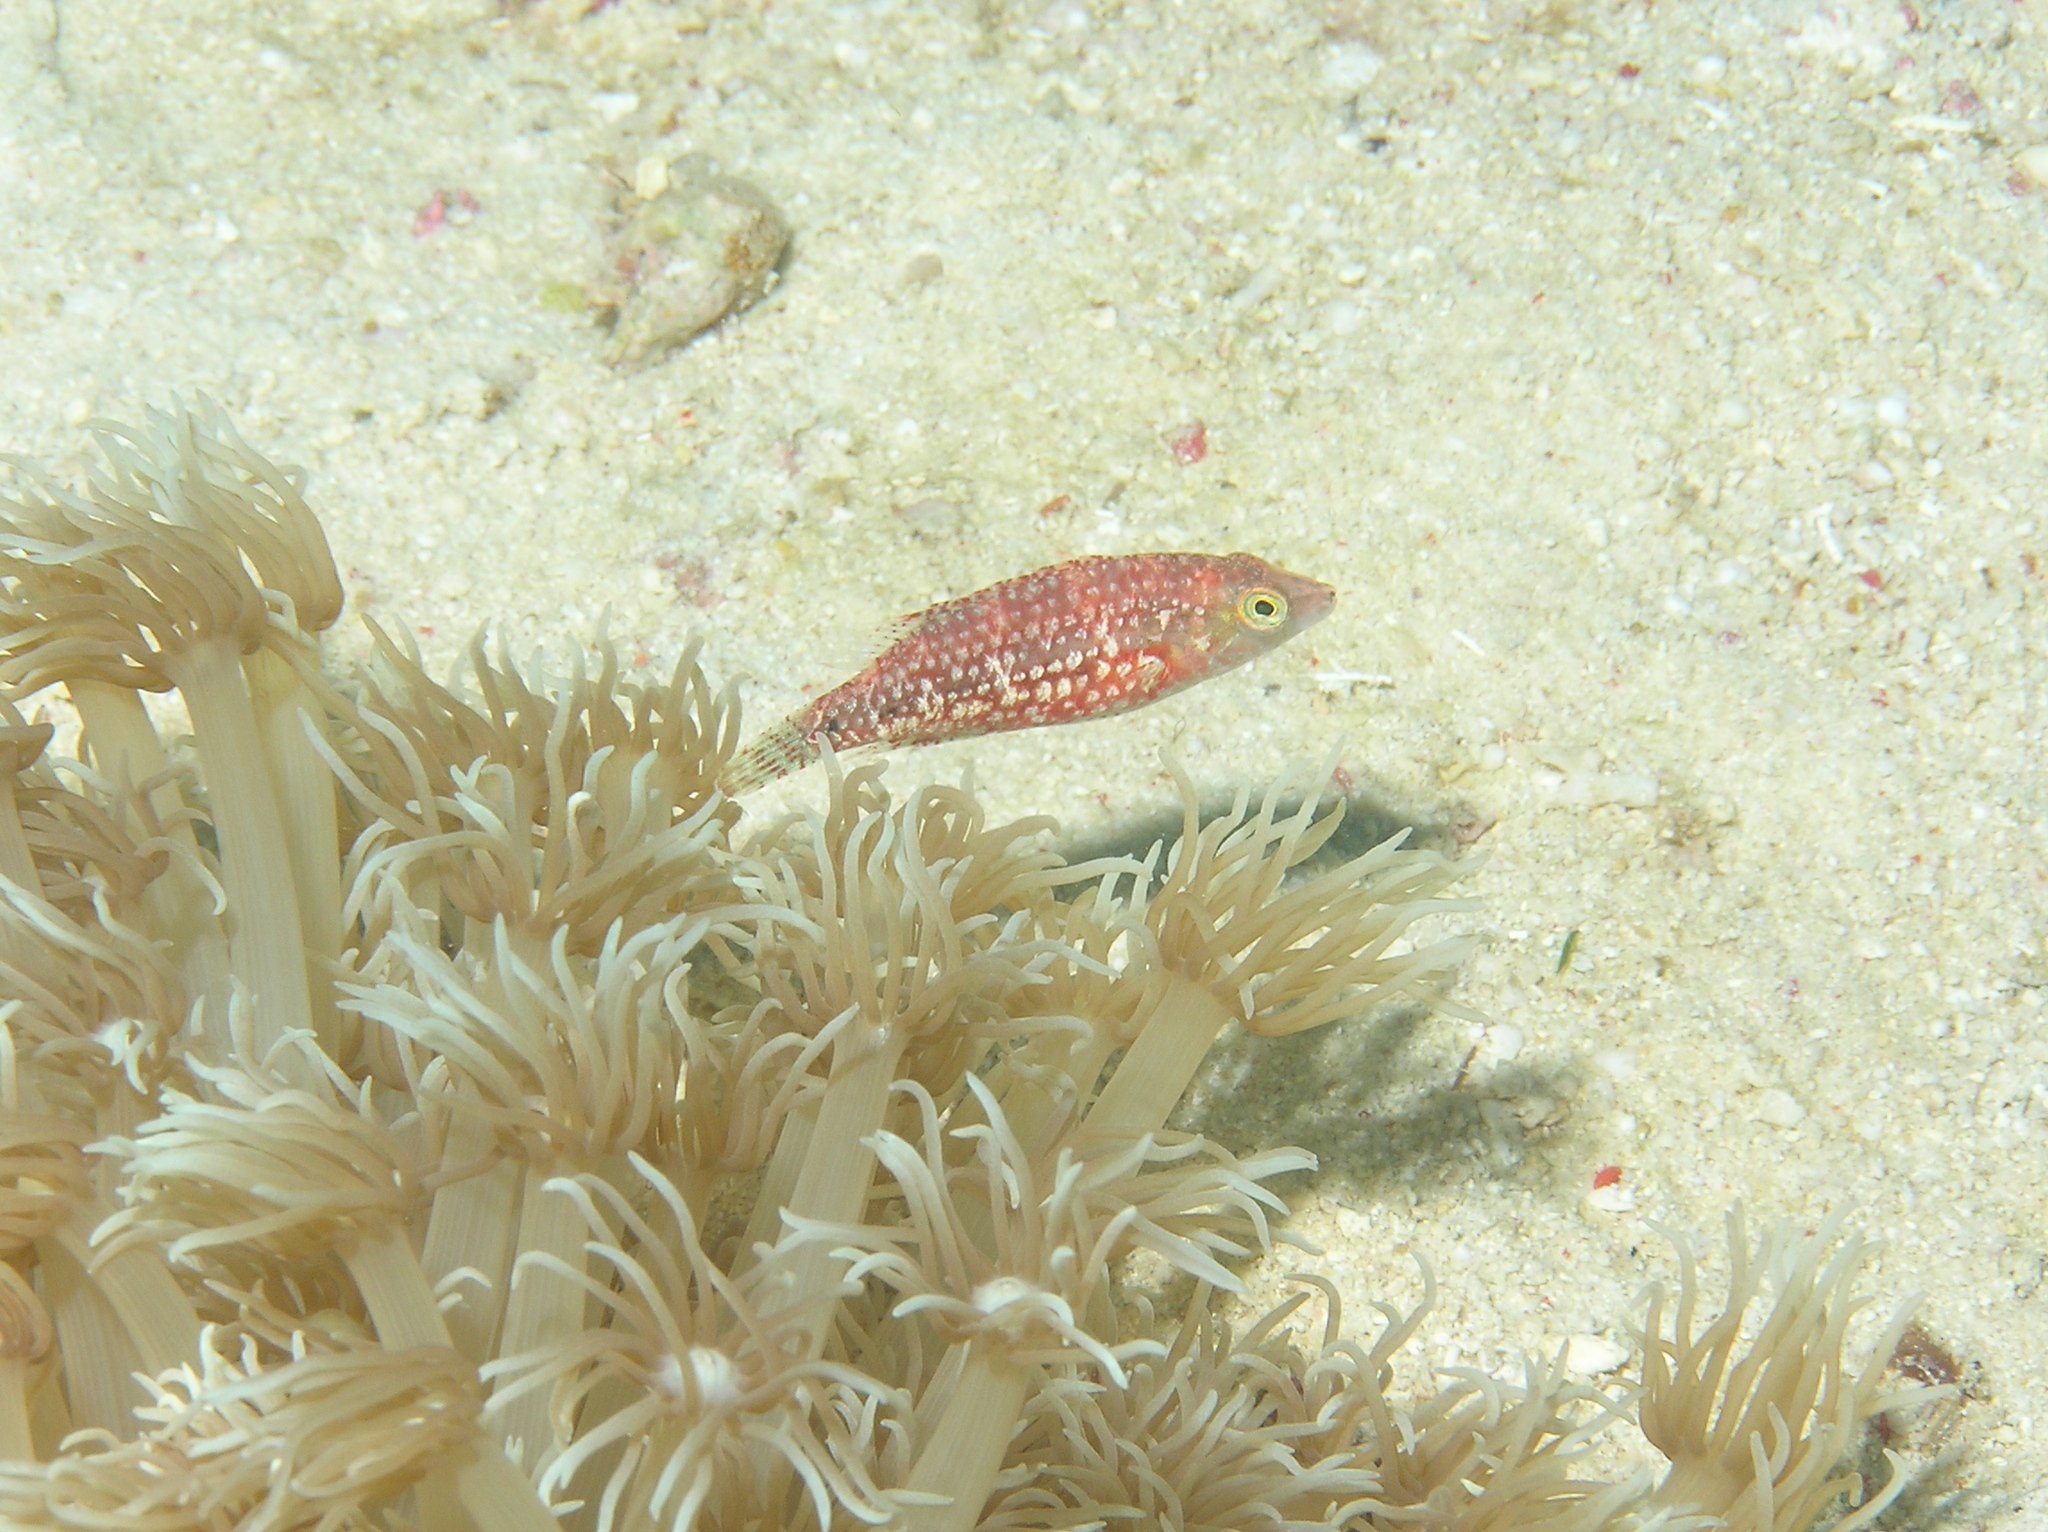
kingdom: Animalia
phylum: Chordata
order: Perciformes
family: Labridae
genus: Oxycheilinus
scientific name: Oxycheilinus bimaculatus
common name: Comettailed wrasse
